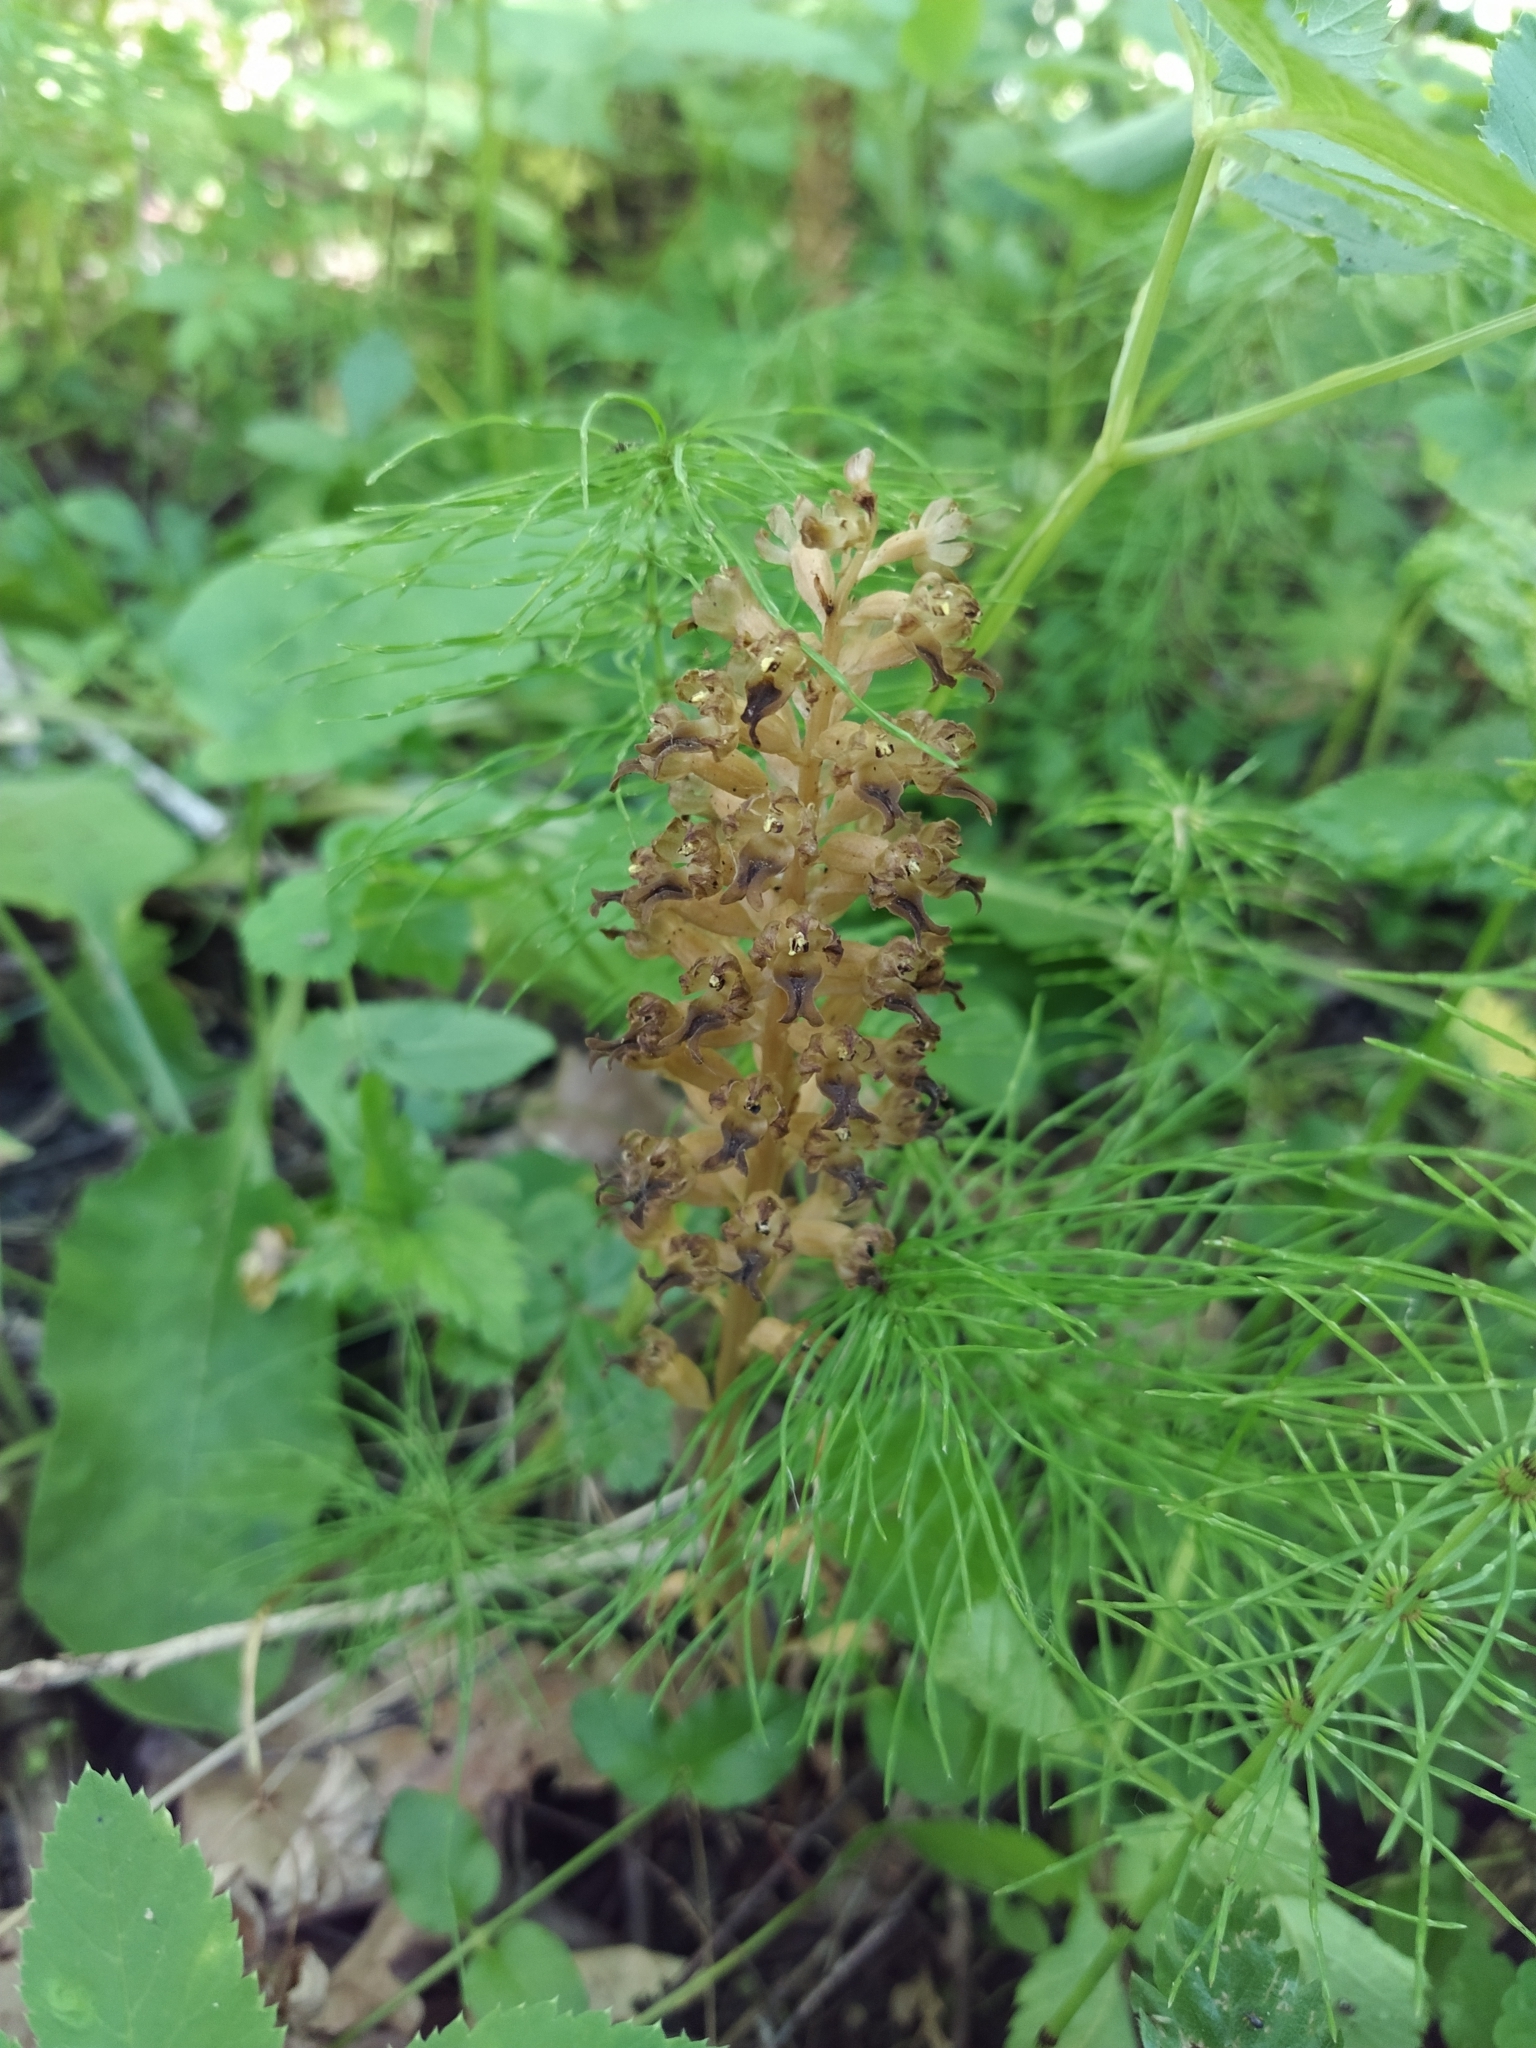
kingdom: Plantae
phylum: Tracheophyta
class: Liliopsida
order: Asparagales
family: Orchidaceae
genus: Neottia
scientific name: Neottia nidus-avis
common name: Bird's-nest orchid
